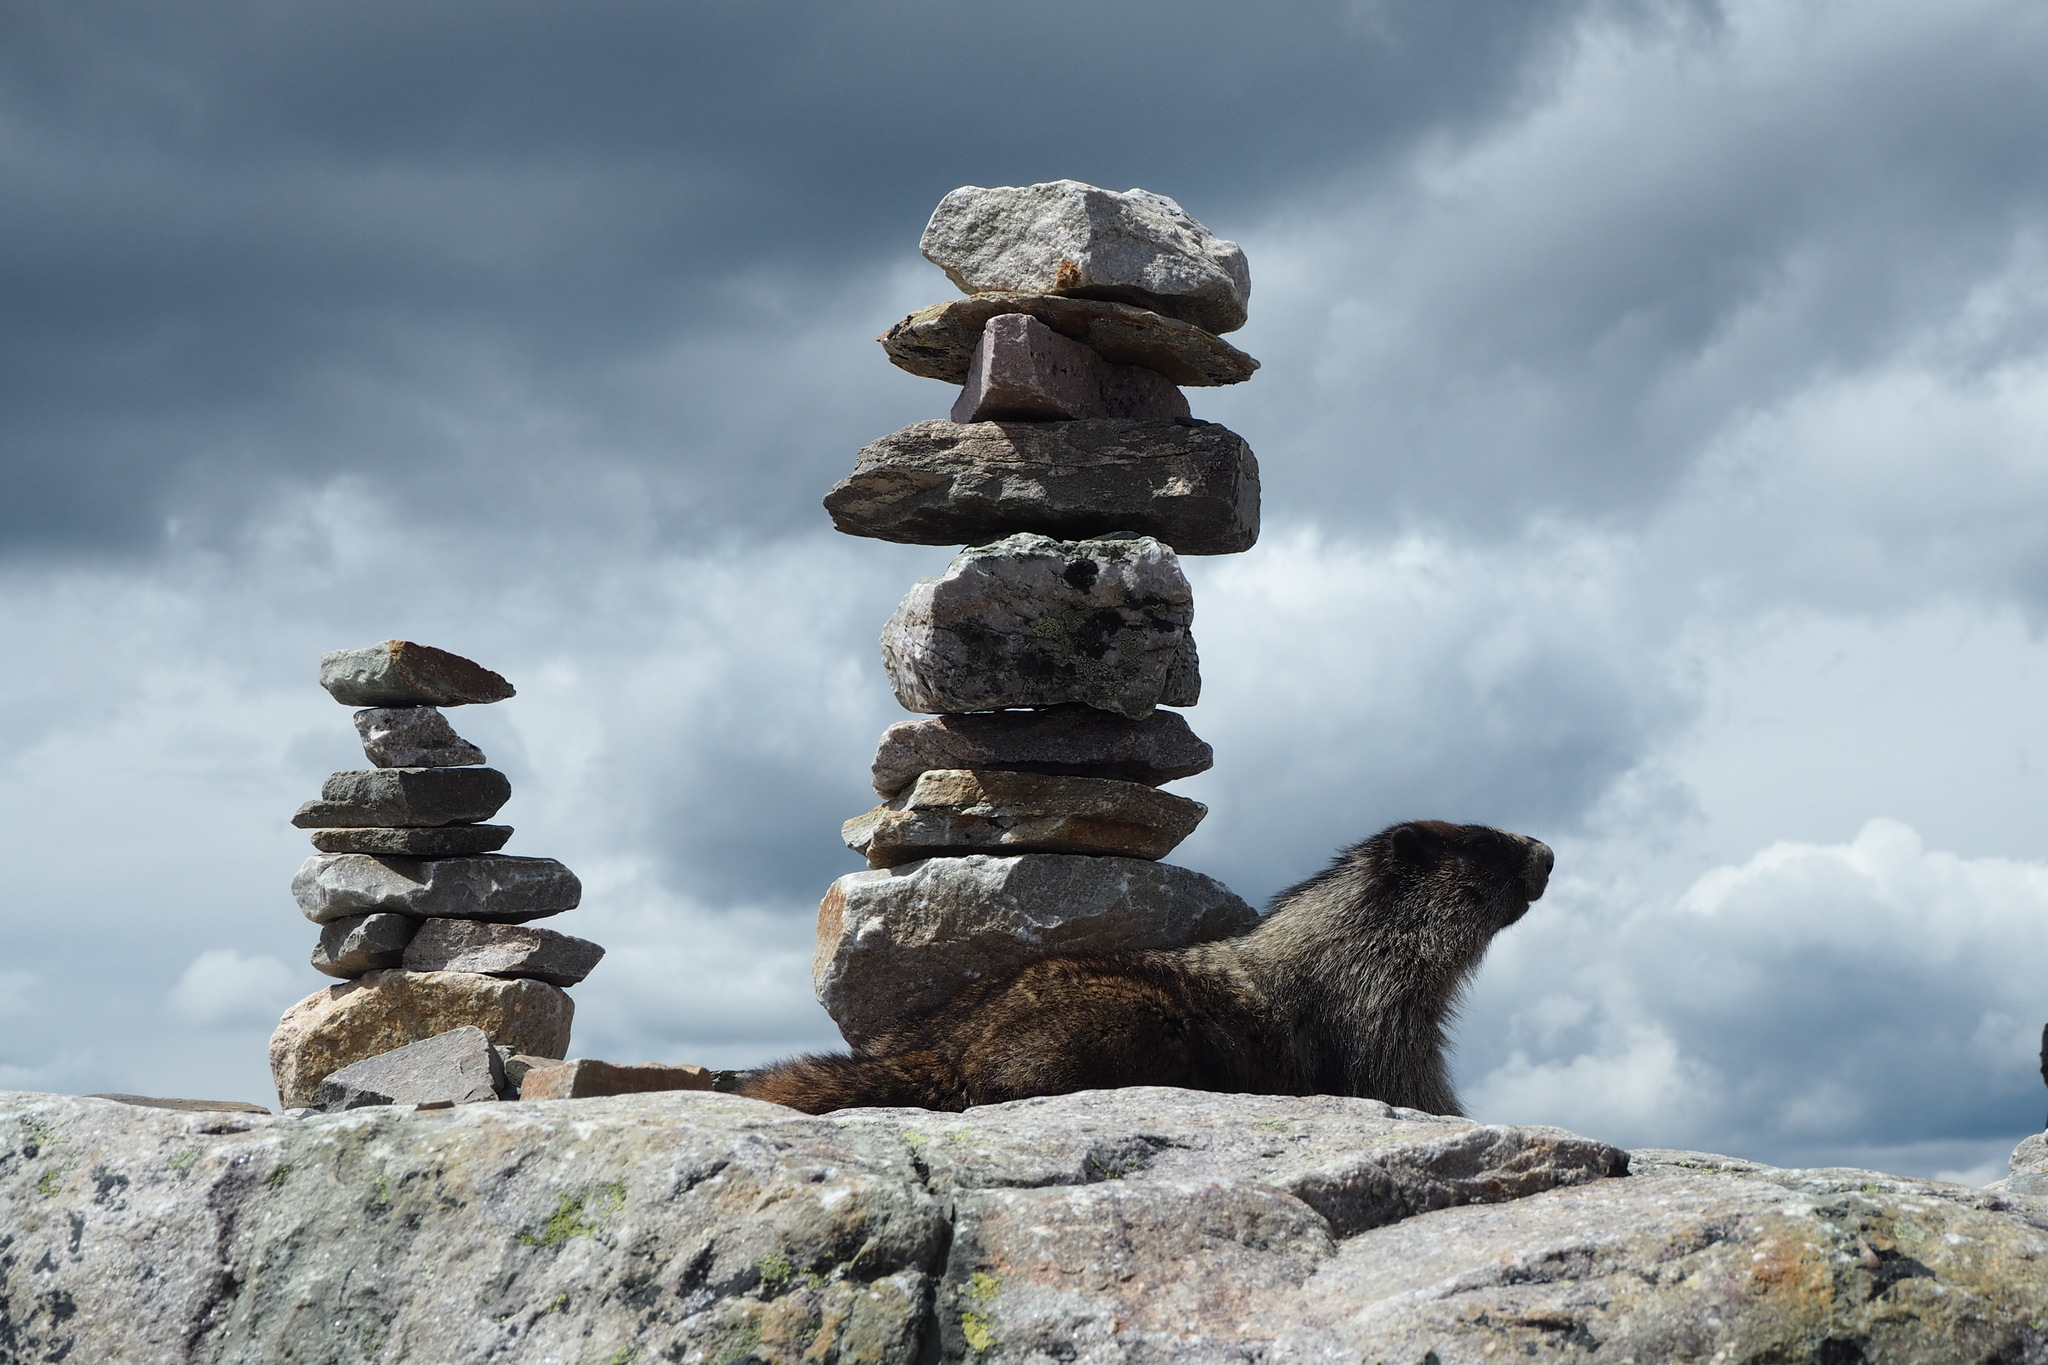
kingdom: Animalia
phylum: Chordata
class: Mammalia
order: Rodentia
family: Sciuridae
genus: Marmota
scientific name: Marmota caligata
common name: Hoary marmot
